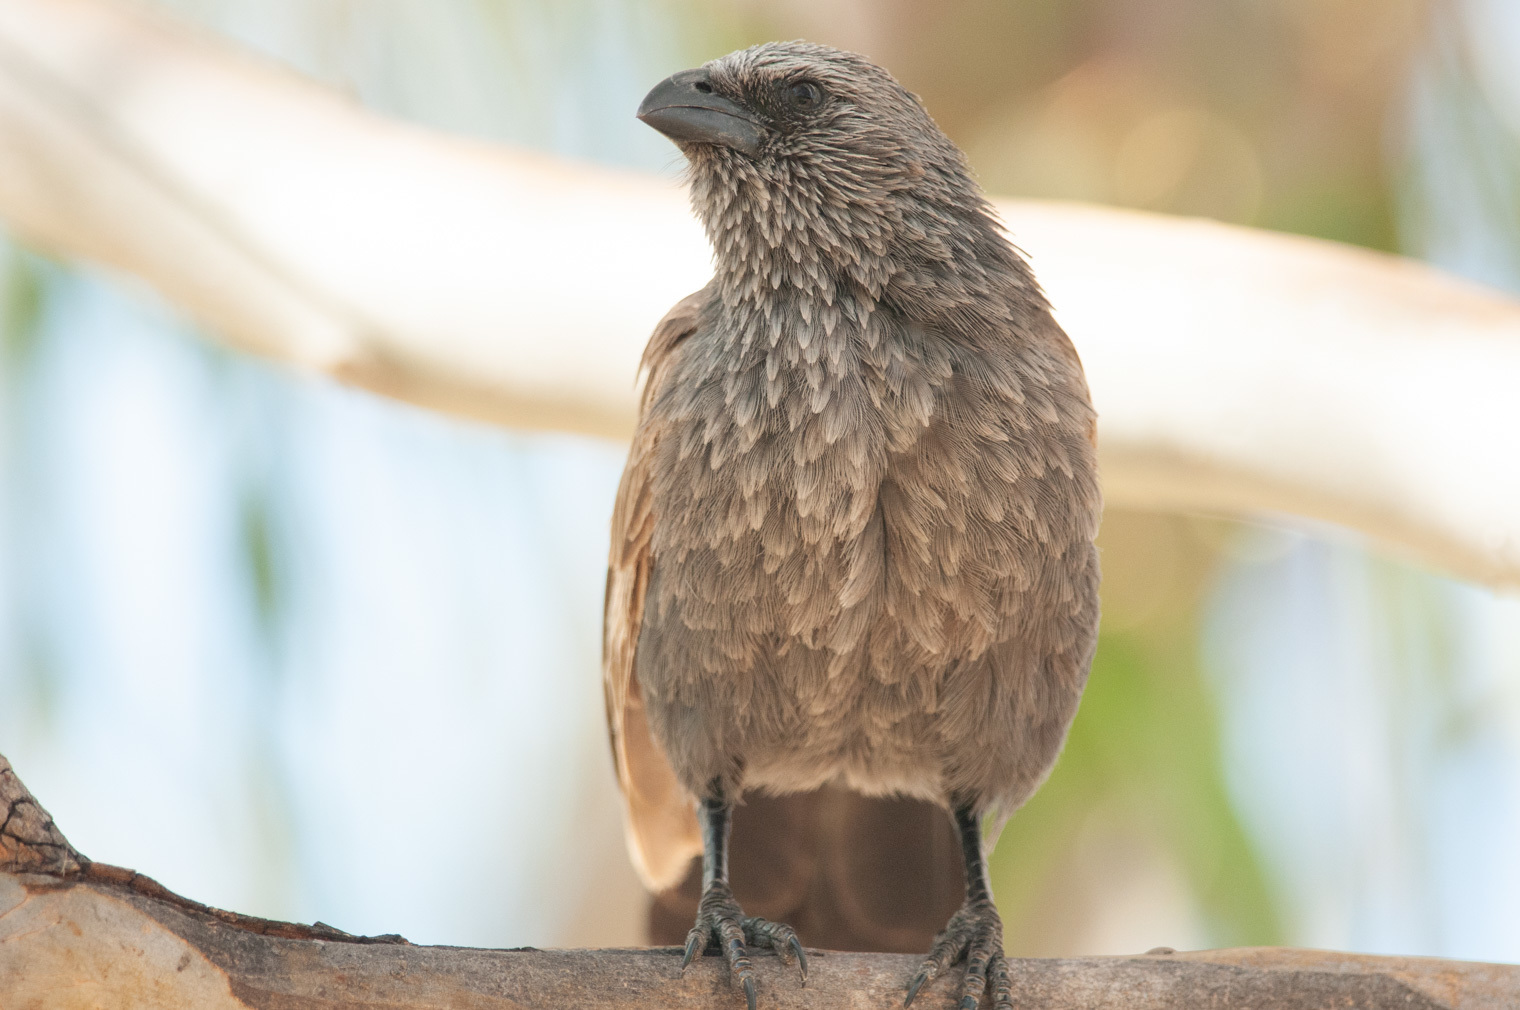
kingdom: Animalia
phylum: Chordata
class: Aves
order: Passeriformes
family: Corcoracidae
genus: Struthidea
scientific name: Struthidea cinerea
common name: Apostlebird
